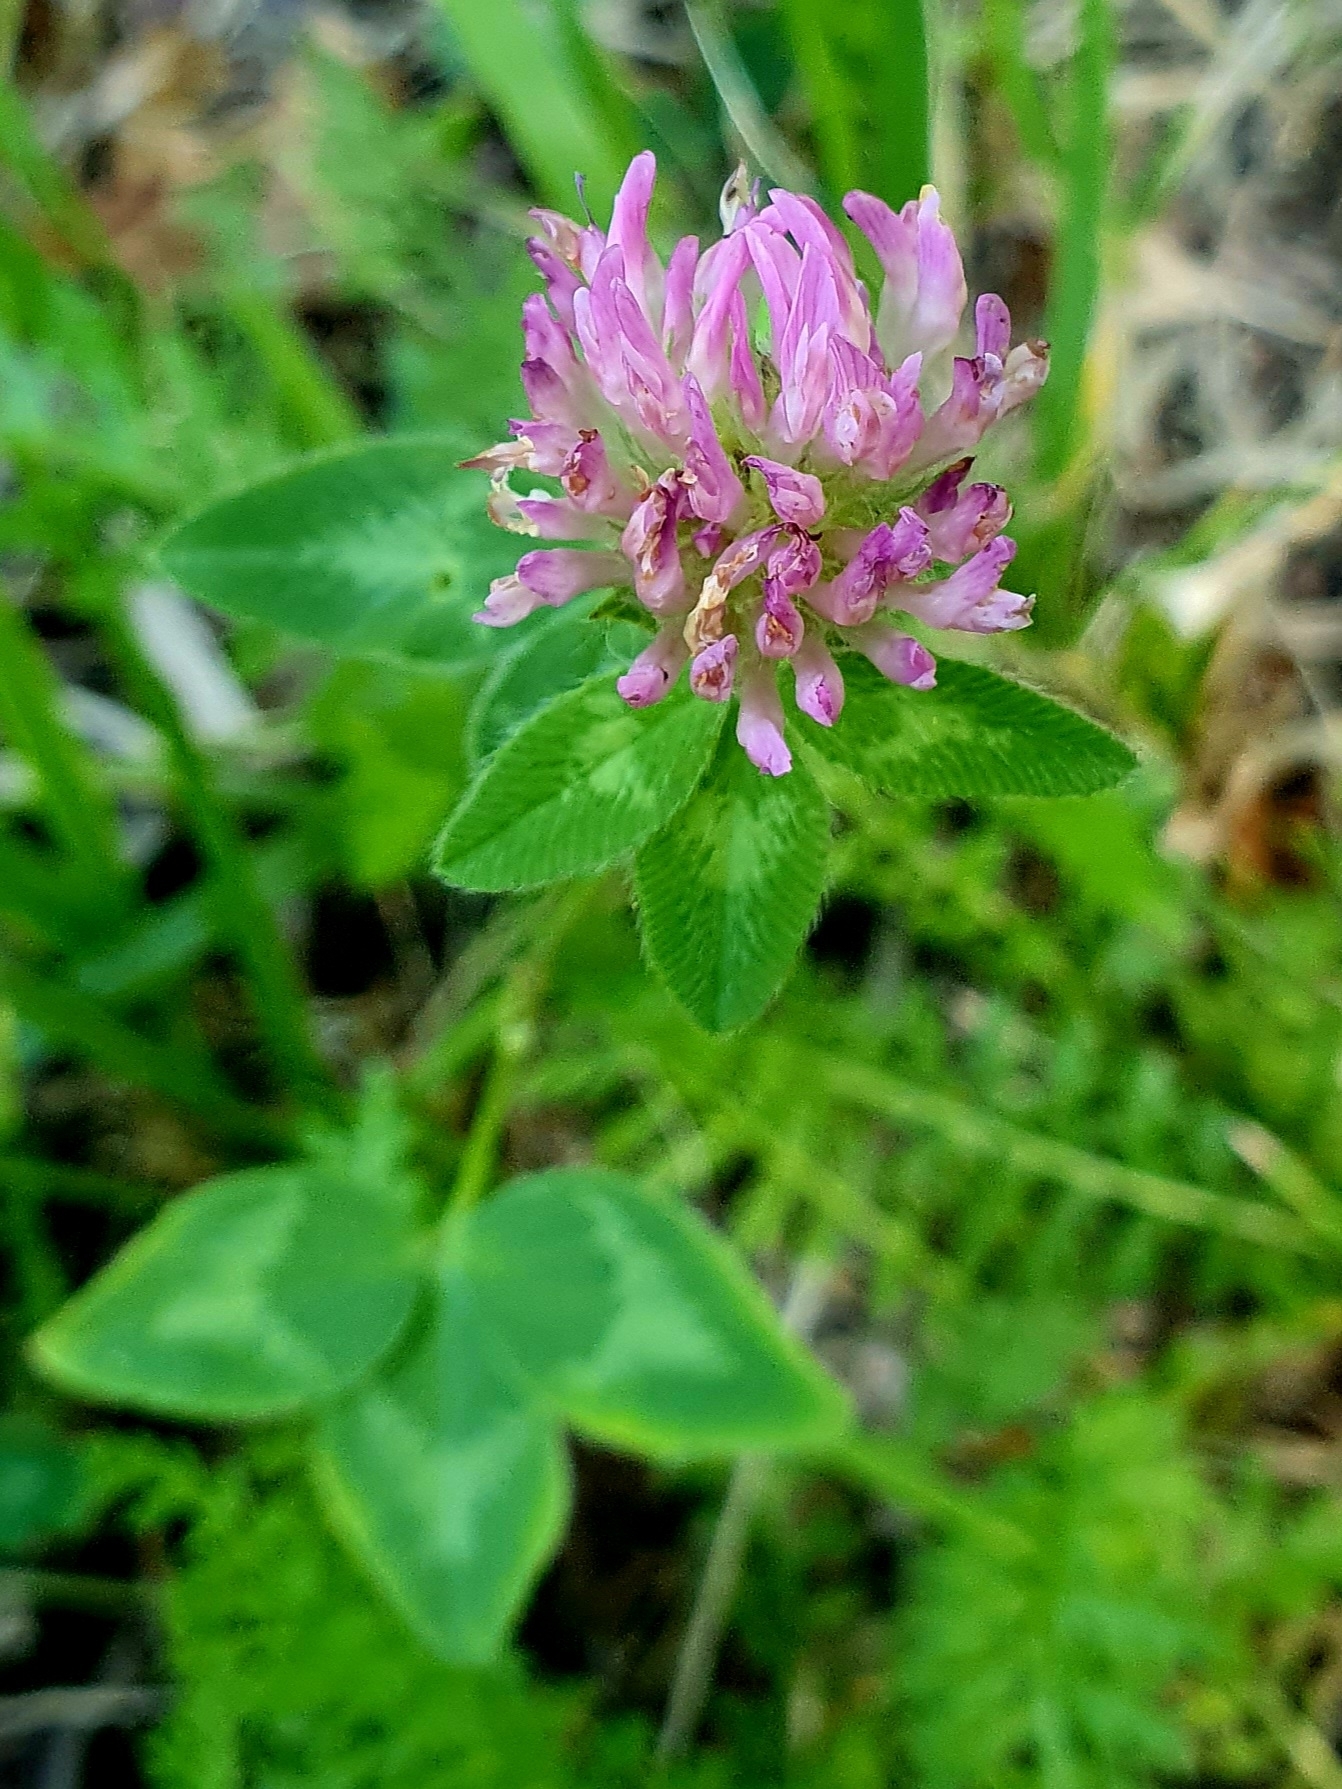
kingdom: Plantae
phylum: Tracheophyta
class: Magnoliopsida
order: Fabales
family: Fabaceae
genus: Trifolium
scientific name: Trifolium pratense
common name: Red clover
